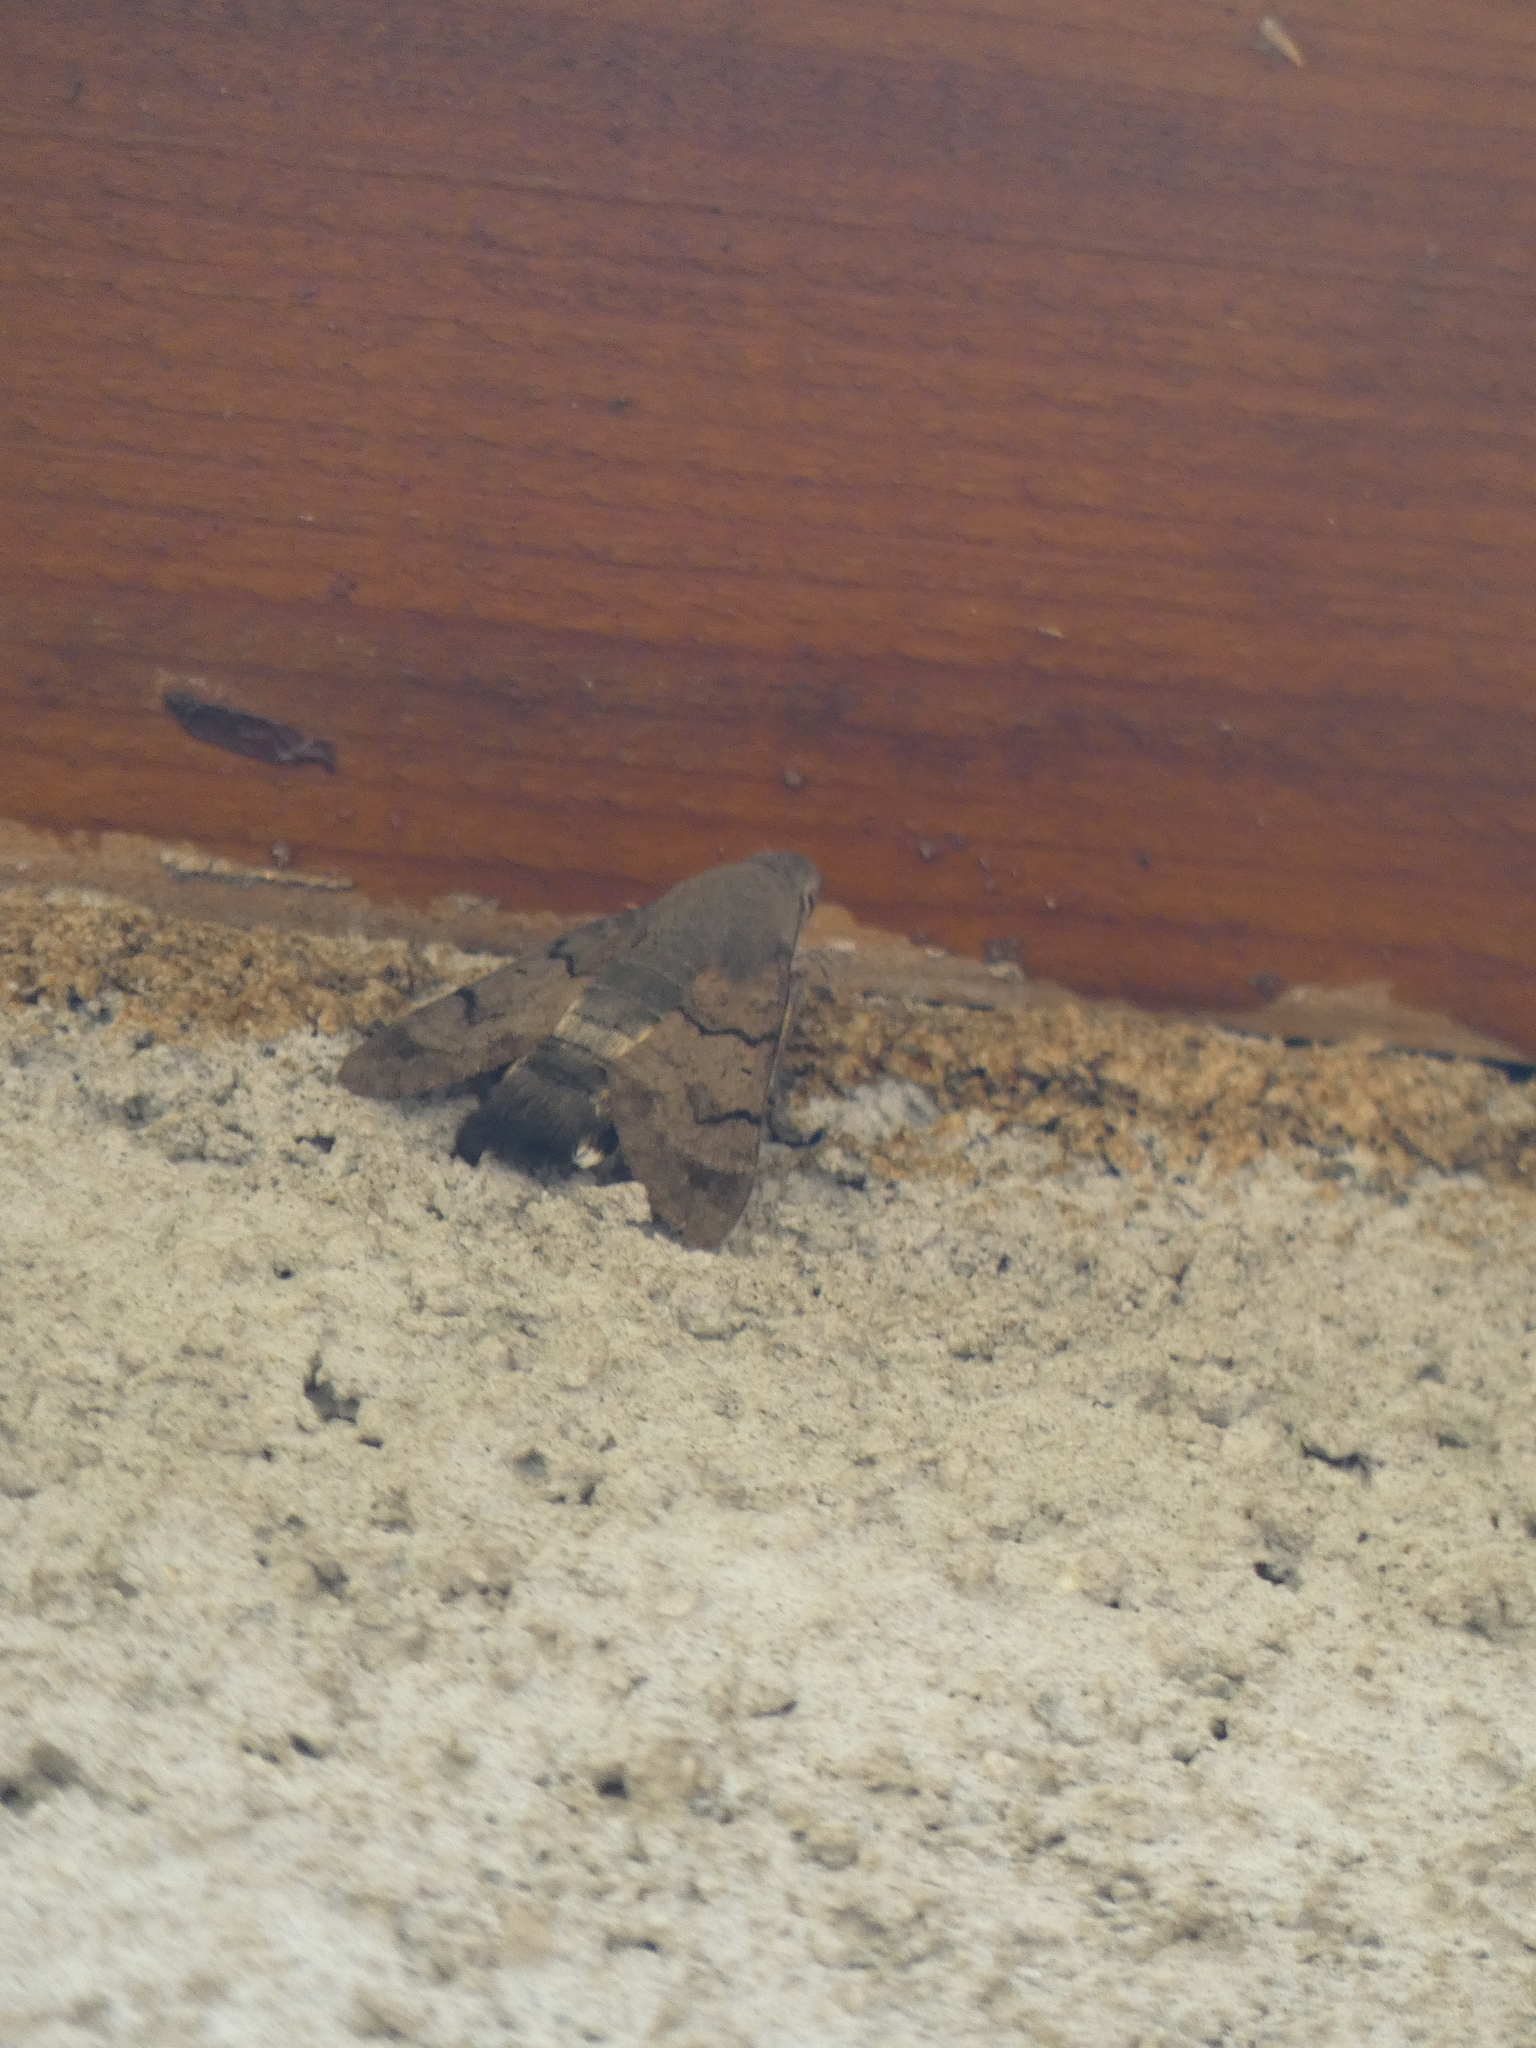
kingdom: Animalia
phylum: Arthropoda
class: Insecta
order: Lepidoptera
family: Sphingidae
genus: Macroglossum
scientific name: Macroglossum stellatarum
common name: Humming-bird hawk-moth
